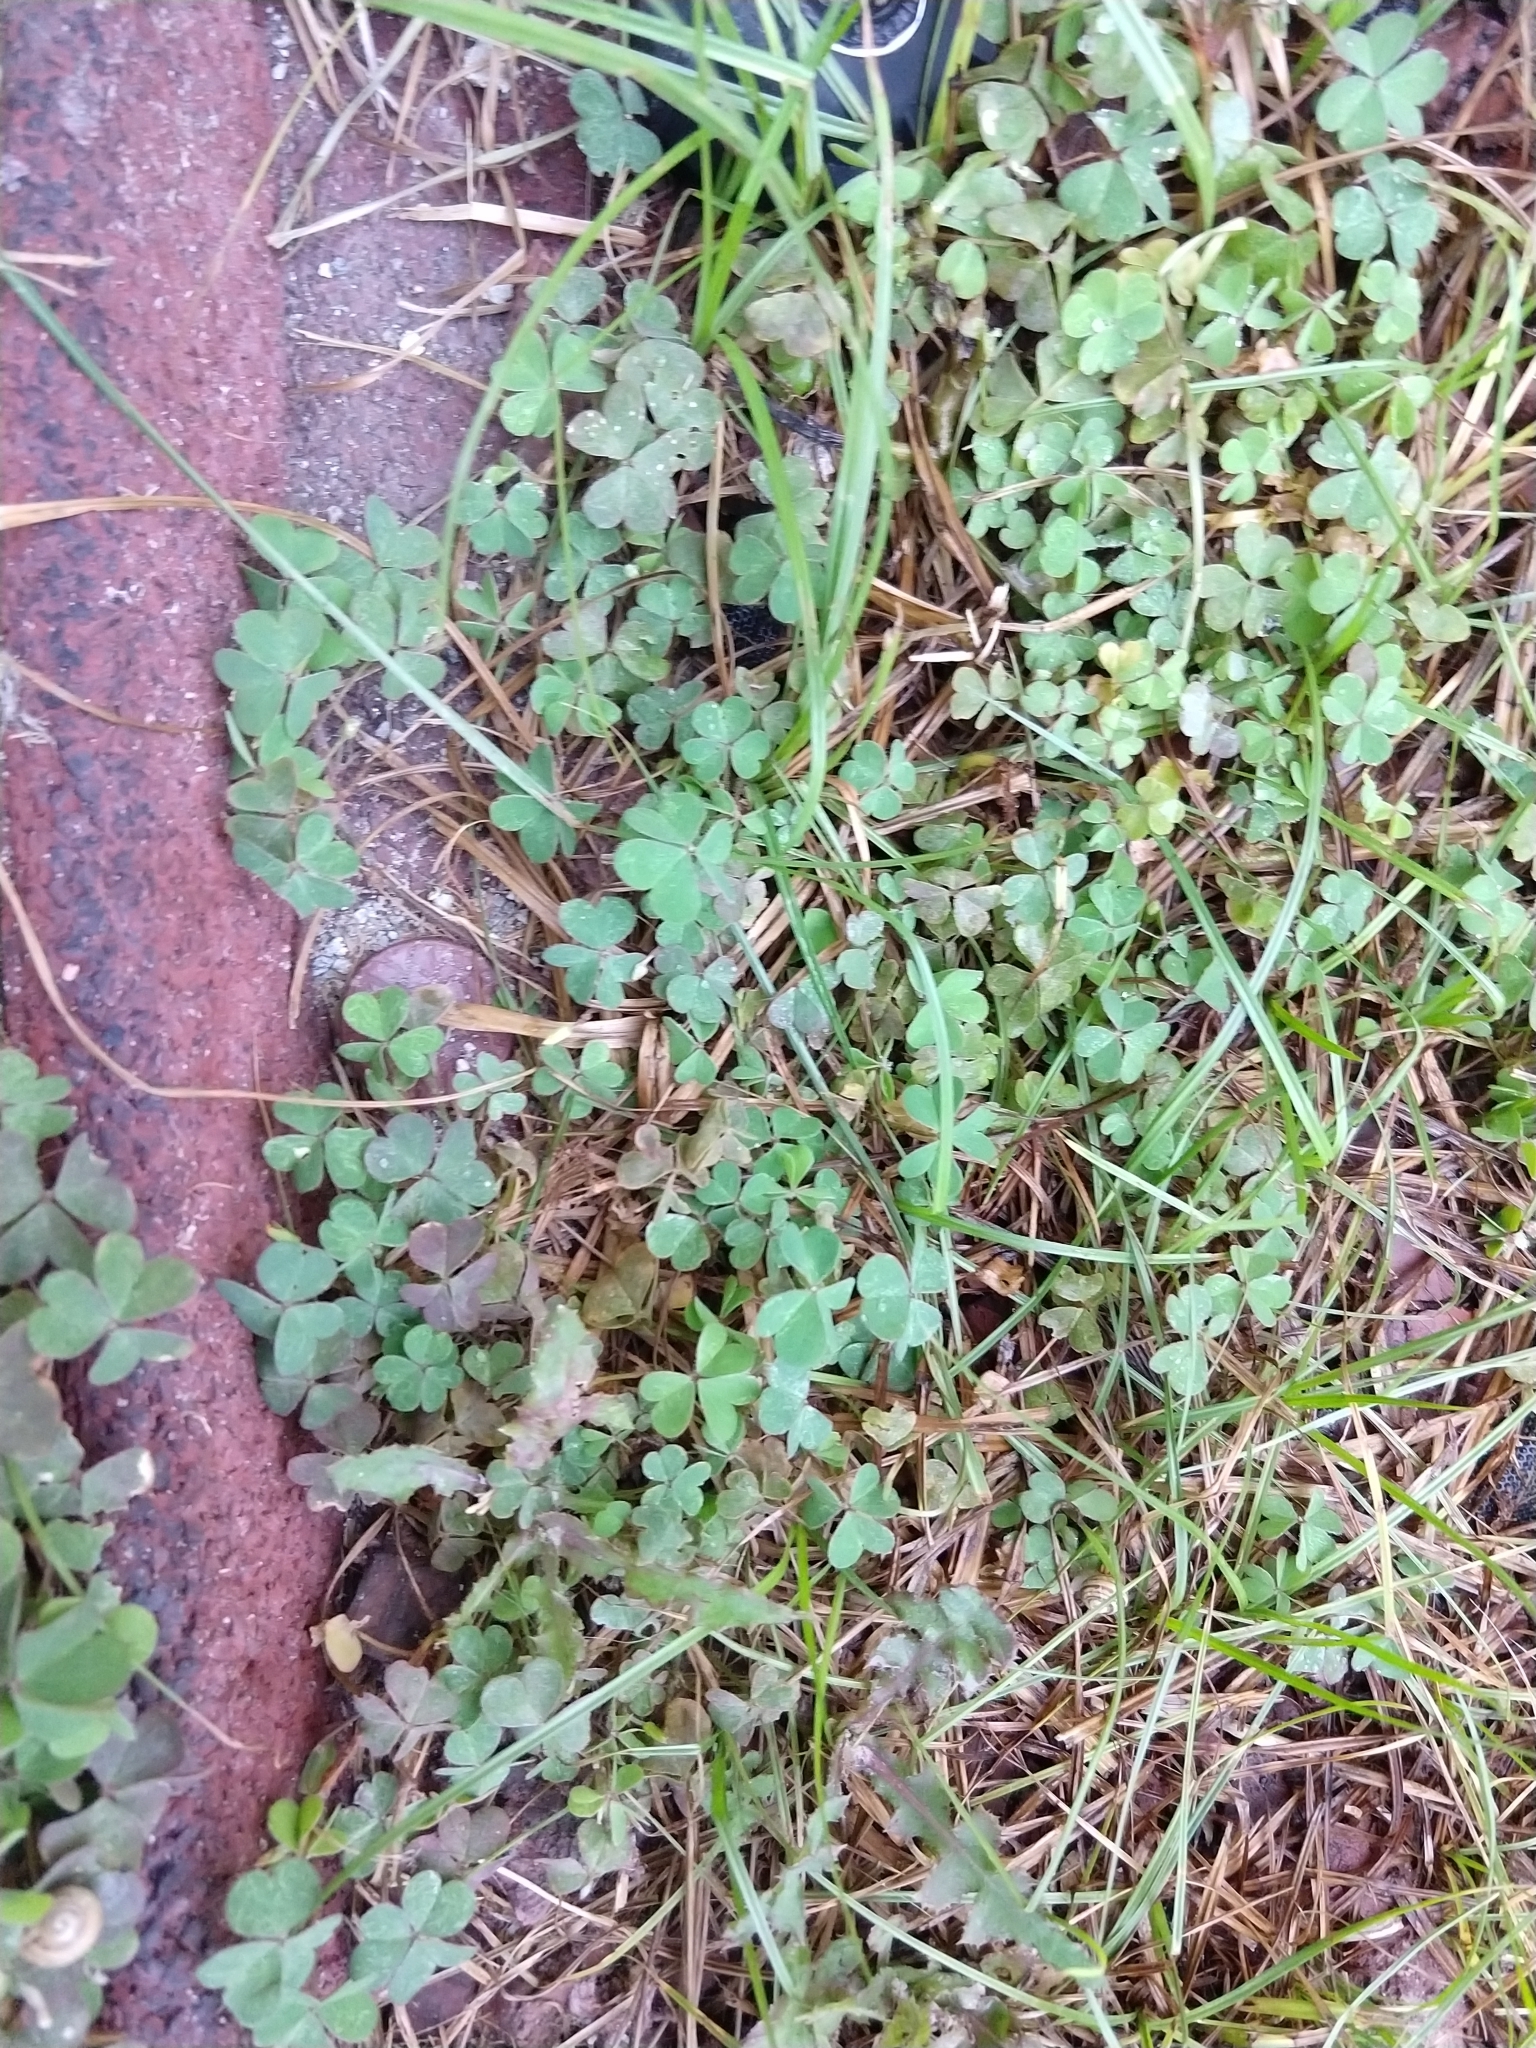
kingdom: Plantae
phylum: Tracheophyta
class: Magnoliopsida
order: Oxalidales
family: Oxalidaceae
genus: Oxalis
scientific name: Oxalis corniculata
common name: Procumbent yellow-sorrel
